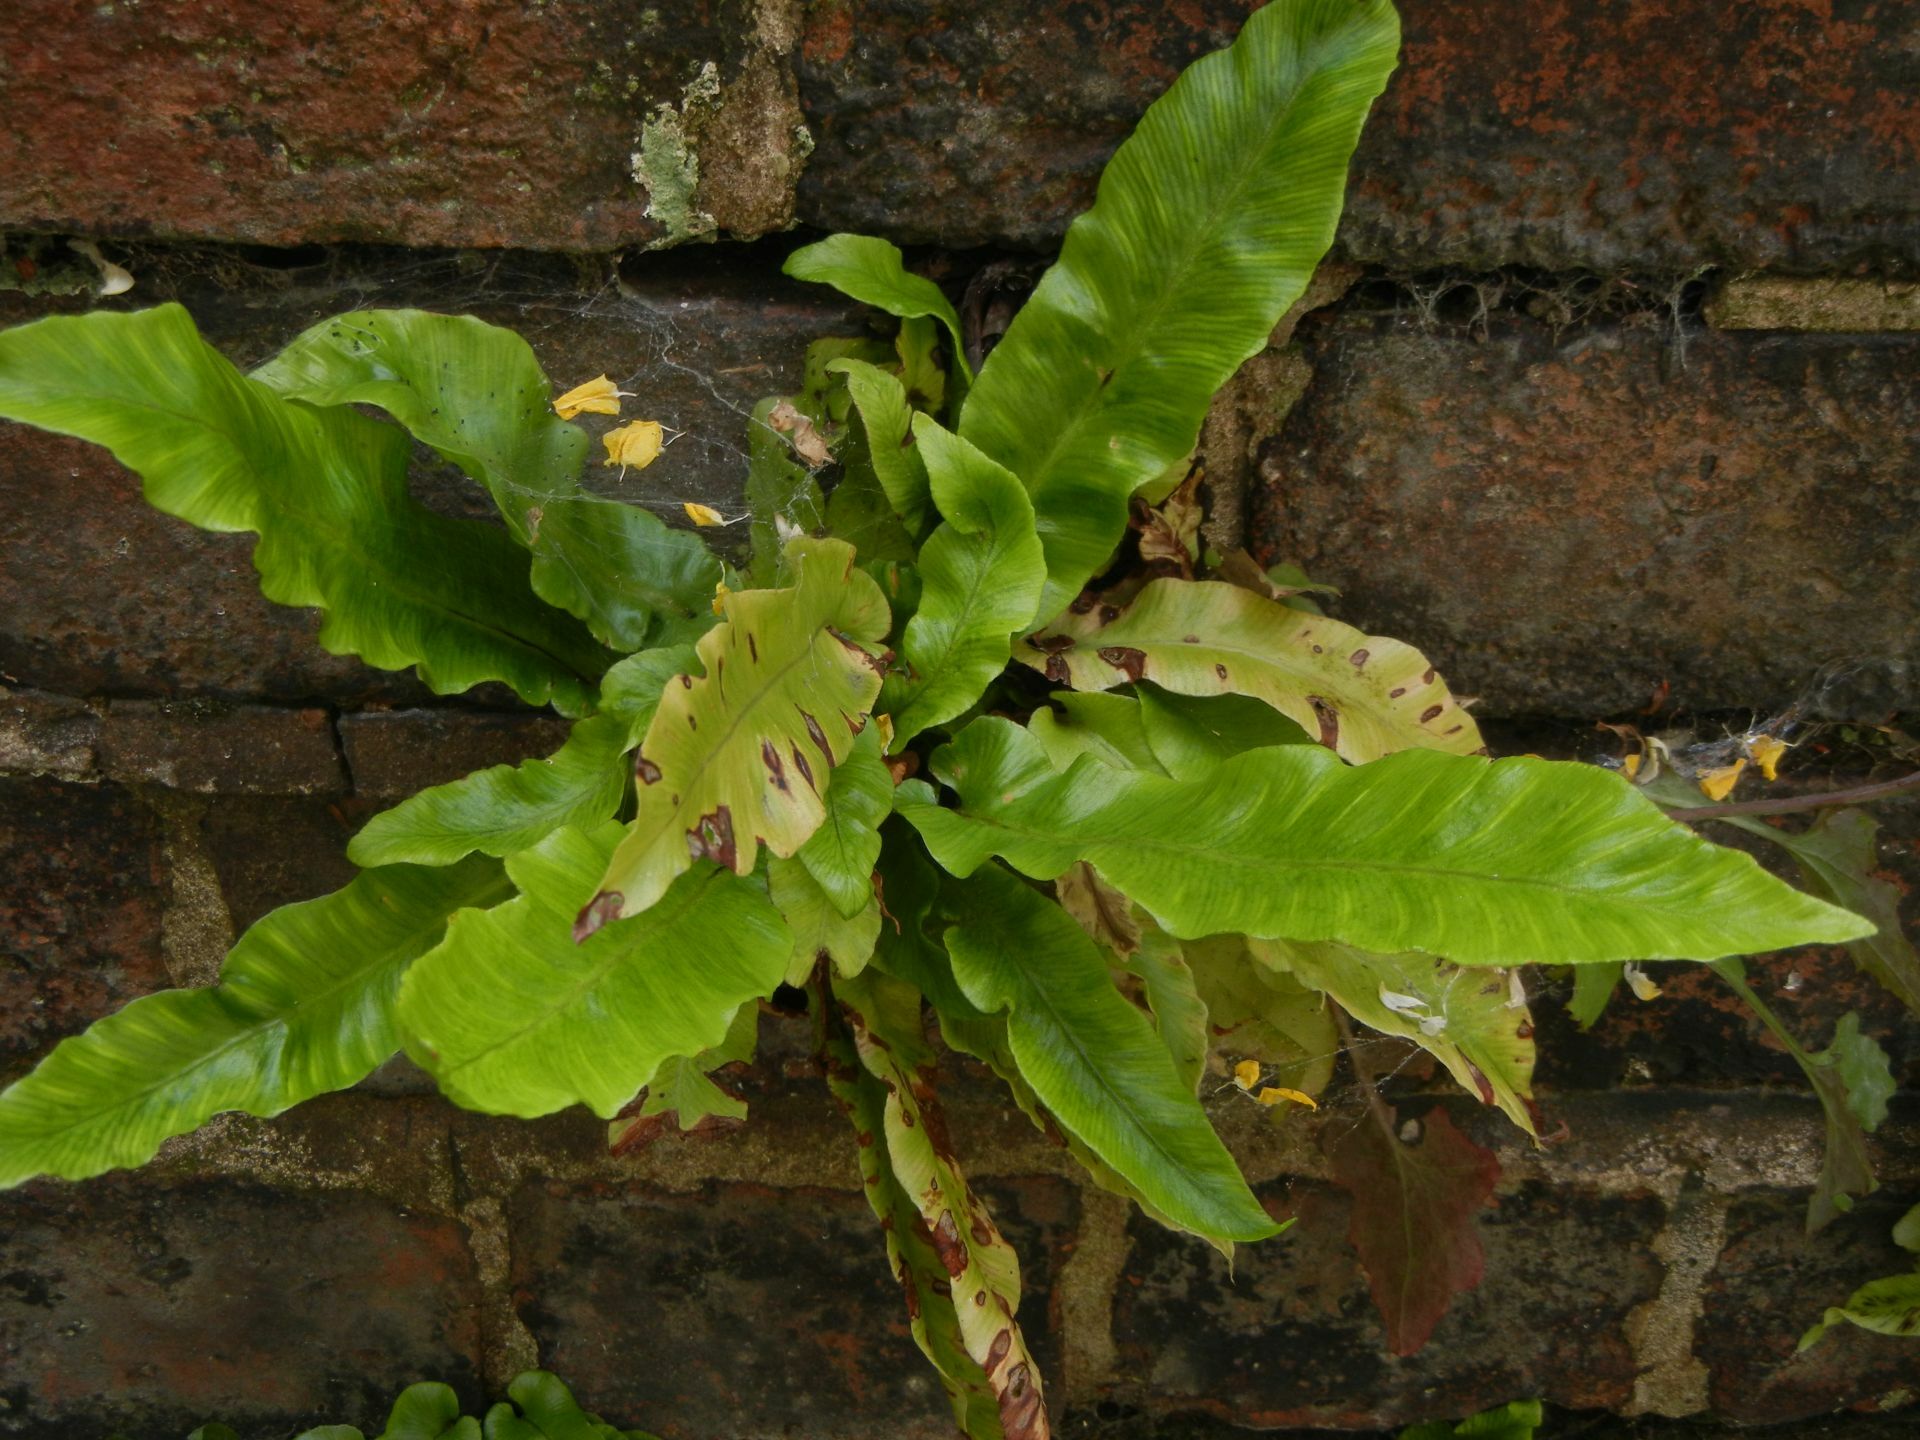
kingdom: Plantae
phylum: Tracheophyta
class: Polypodiopsida
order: Polypodiales
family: Aspleniaceae
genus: Asplenium
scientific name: Asplenium scolopendrium
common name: Hart's-tongue fern
